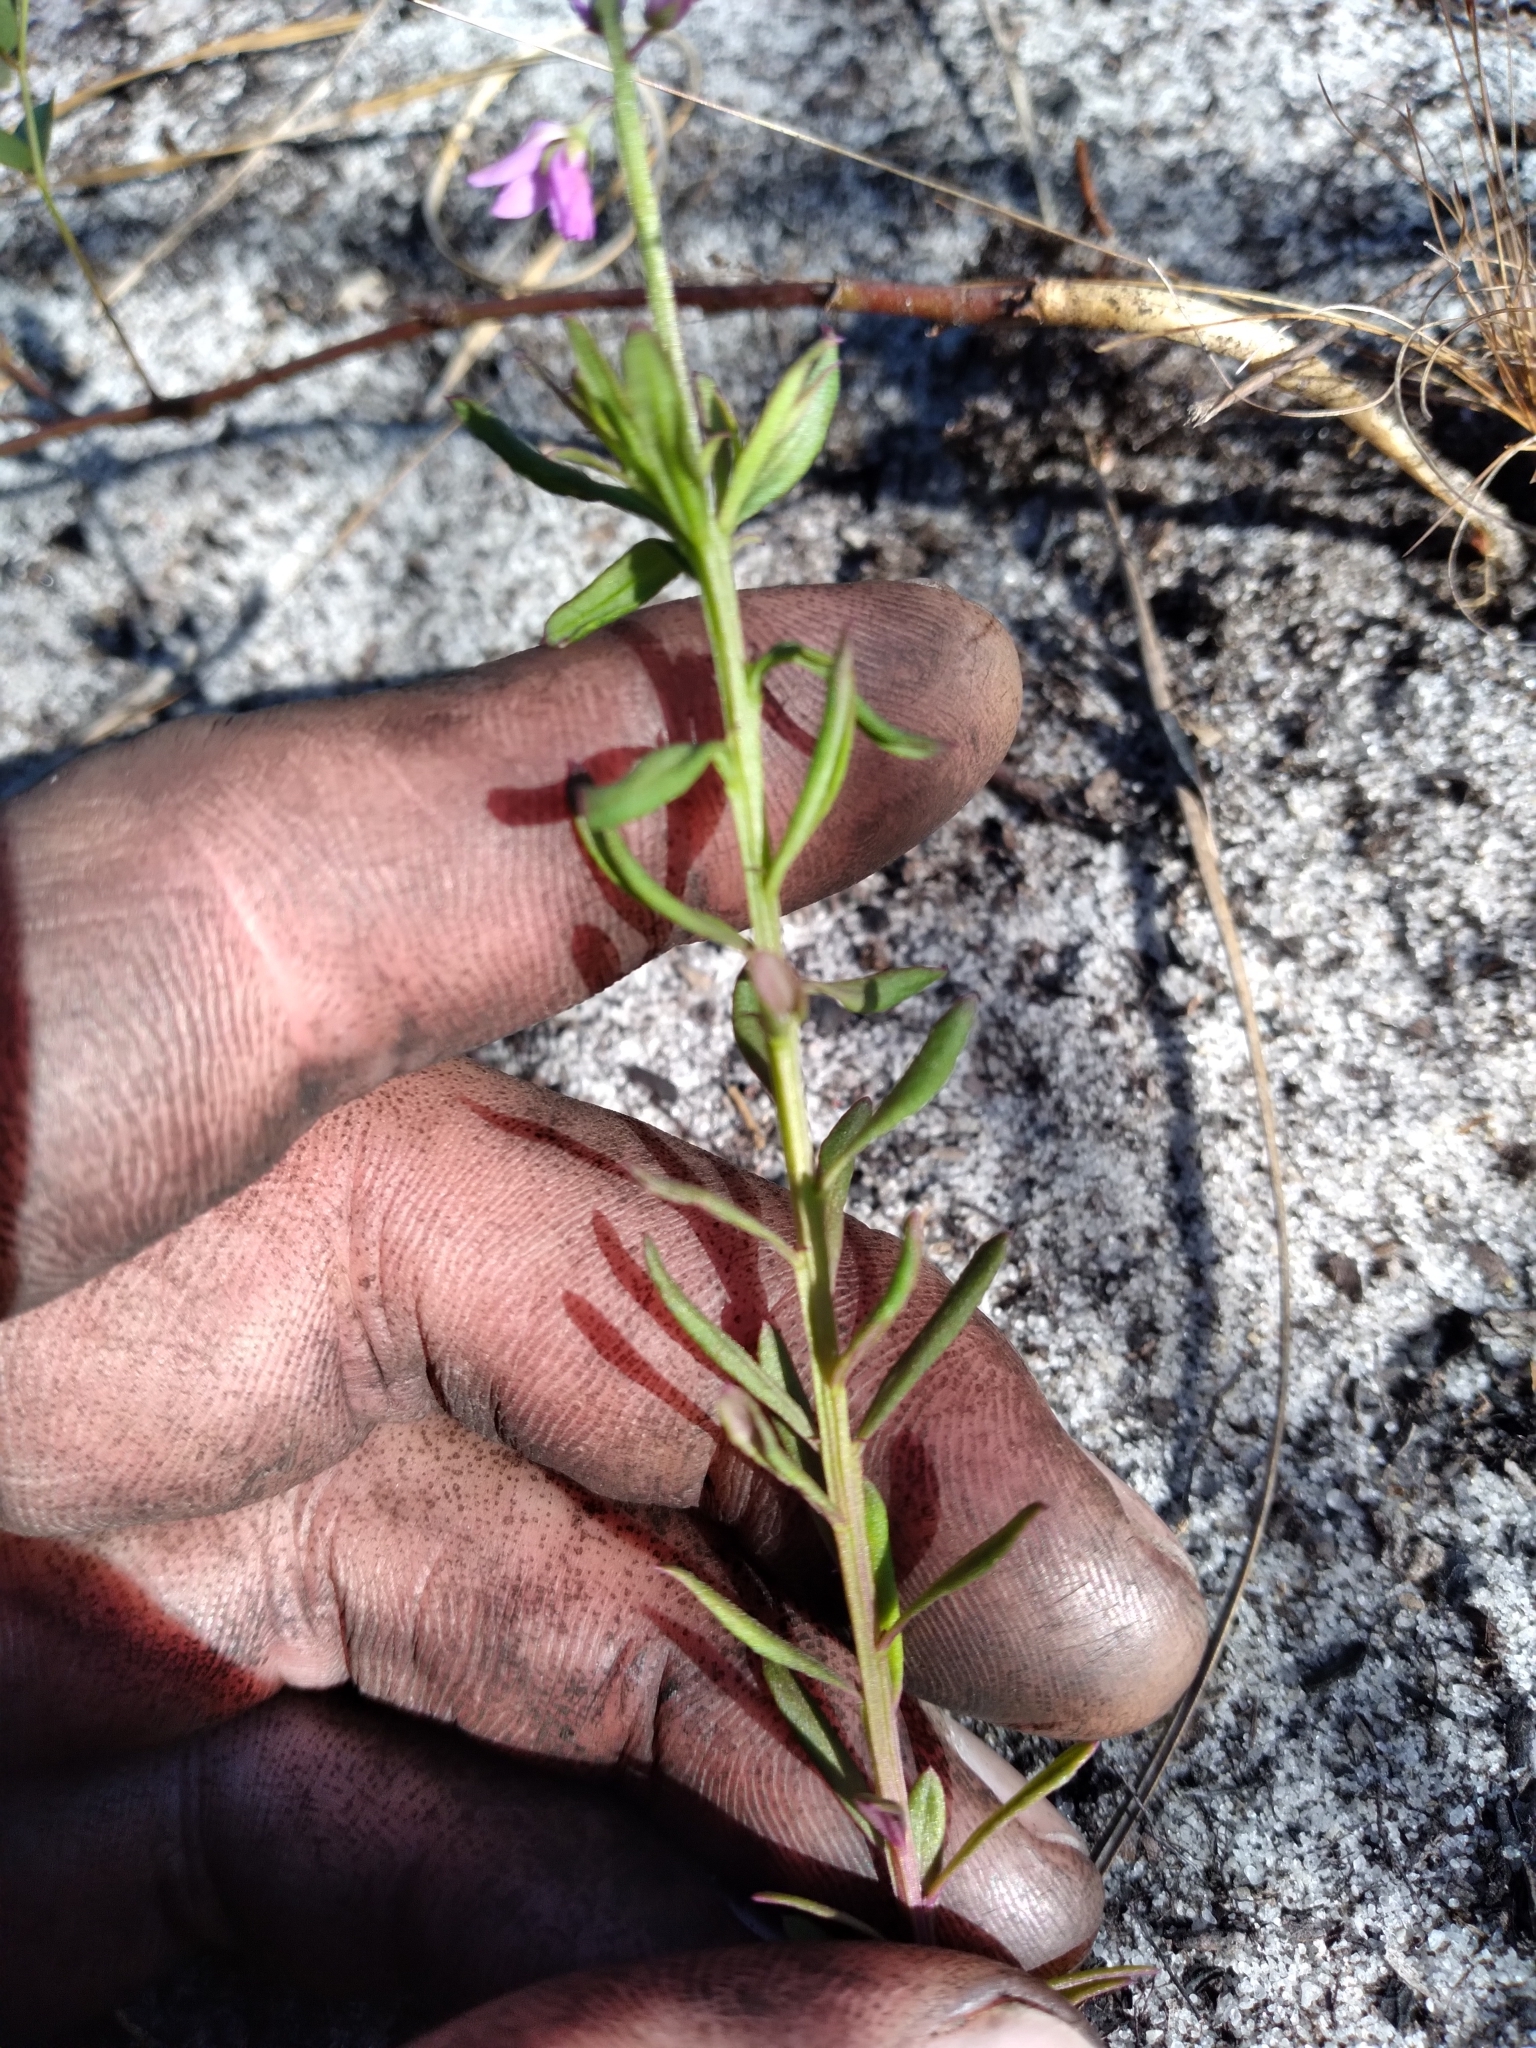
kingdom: Plantae
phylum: Tracheophyta
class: Magnoliopsida
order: Fabales
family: Polygalaceae
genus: Polygala
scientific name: Polygala polygama
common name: Bitter milkwort
